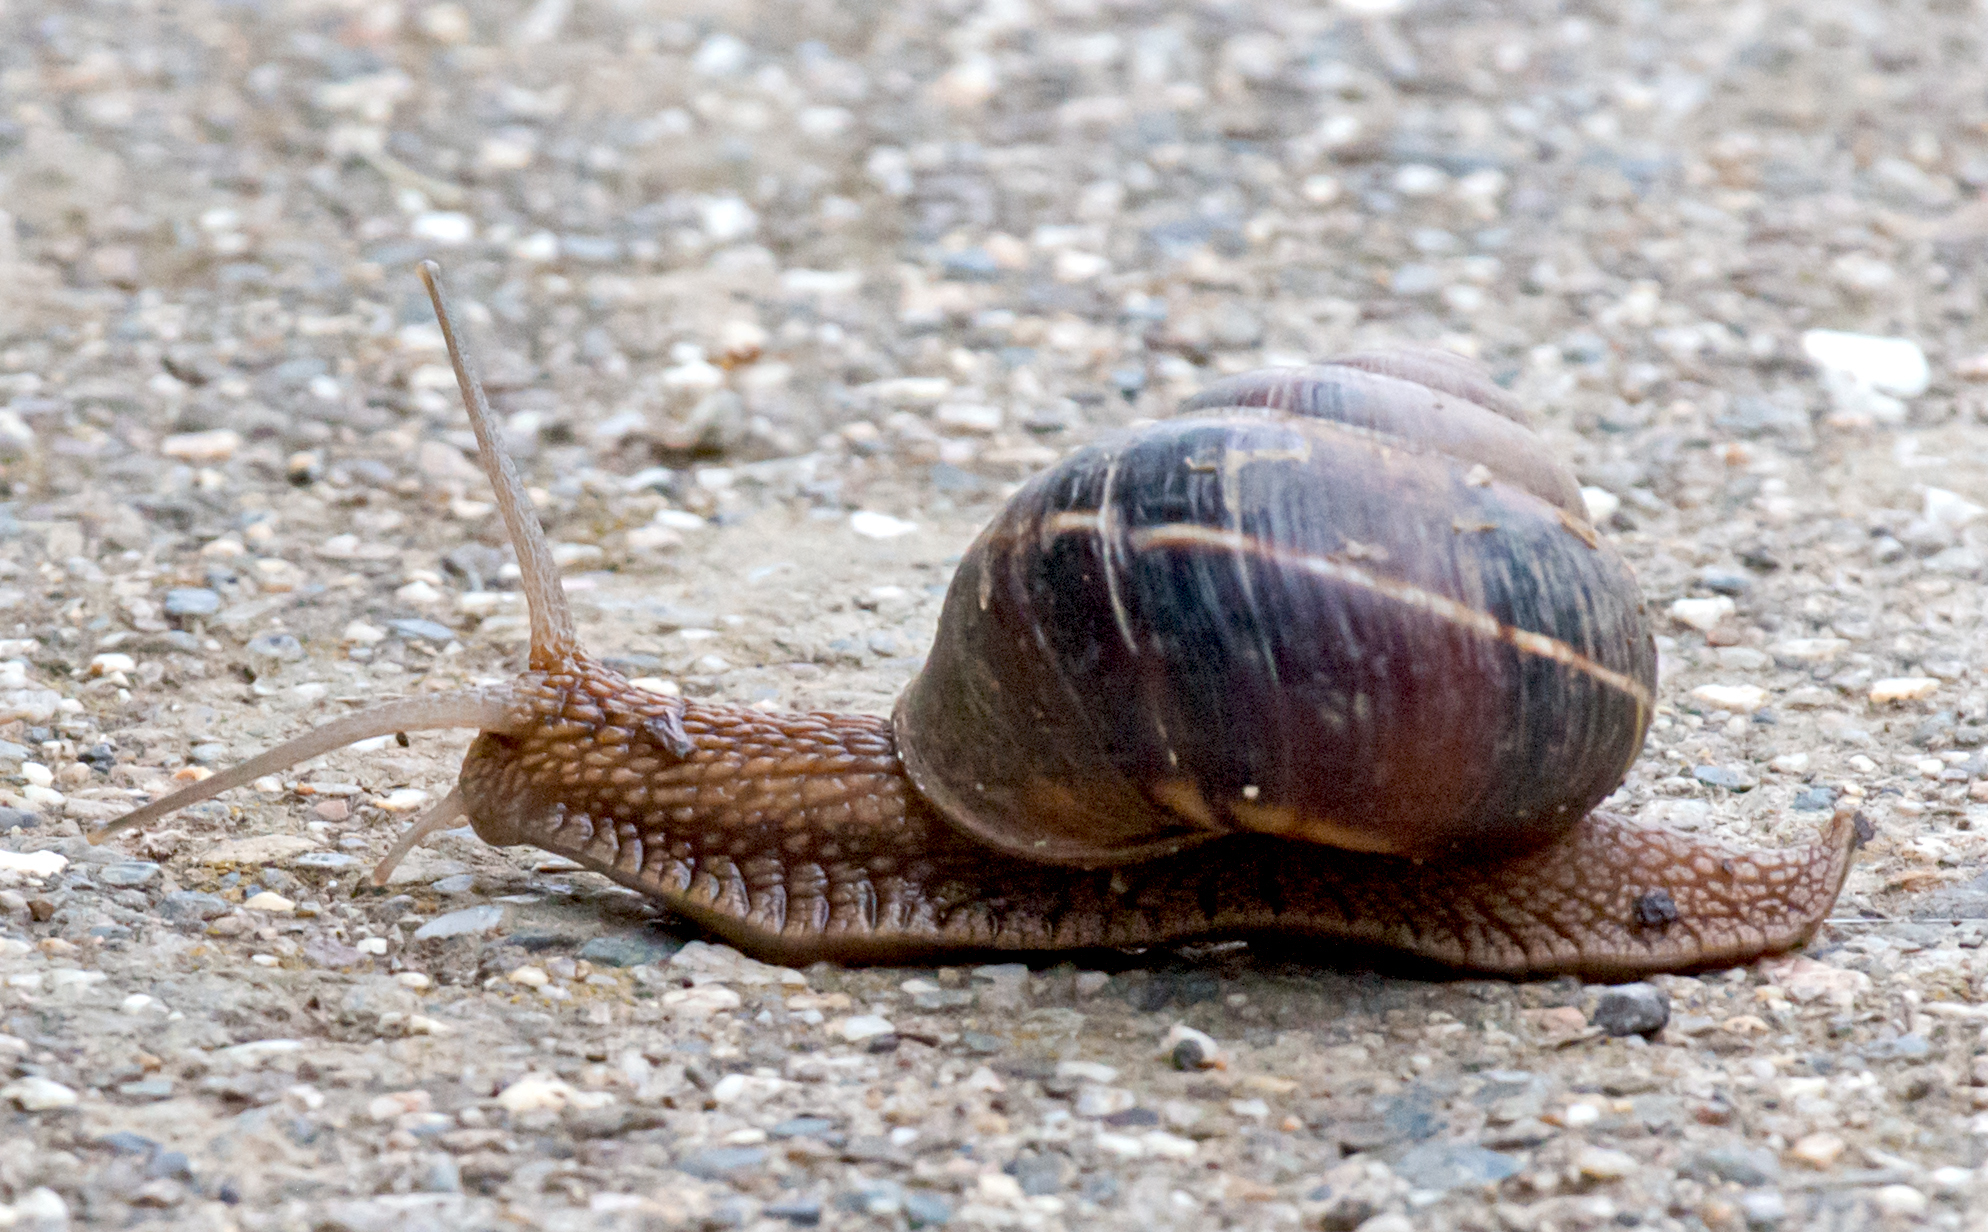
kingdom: Animalia
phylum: Mollusca
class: Gastropoda
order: Stylommatophora
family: Helicidae
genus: Helix
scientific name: Helix lucorum
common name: Turkish snail
